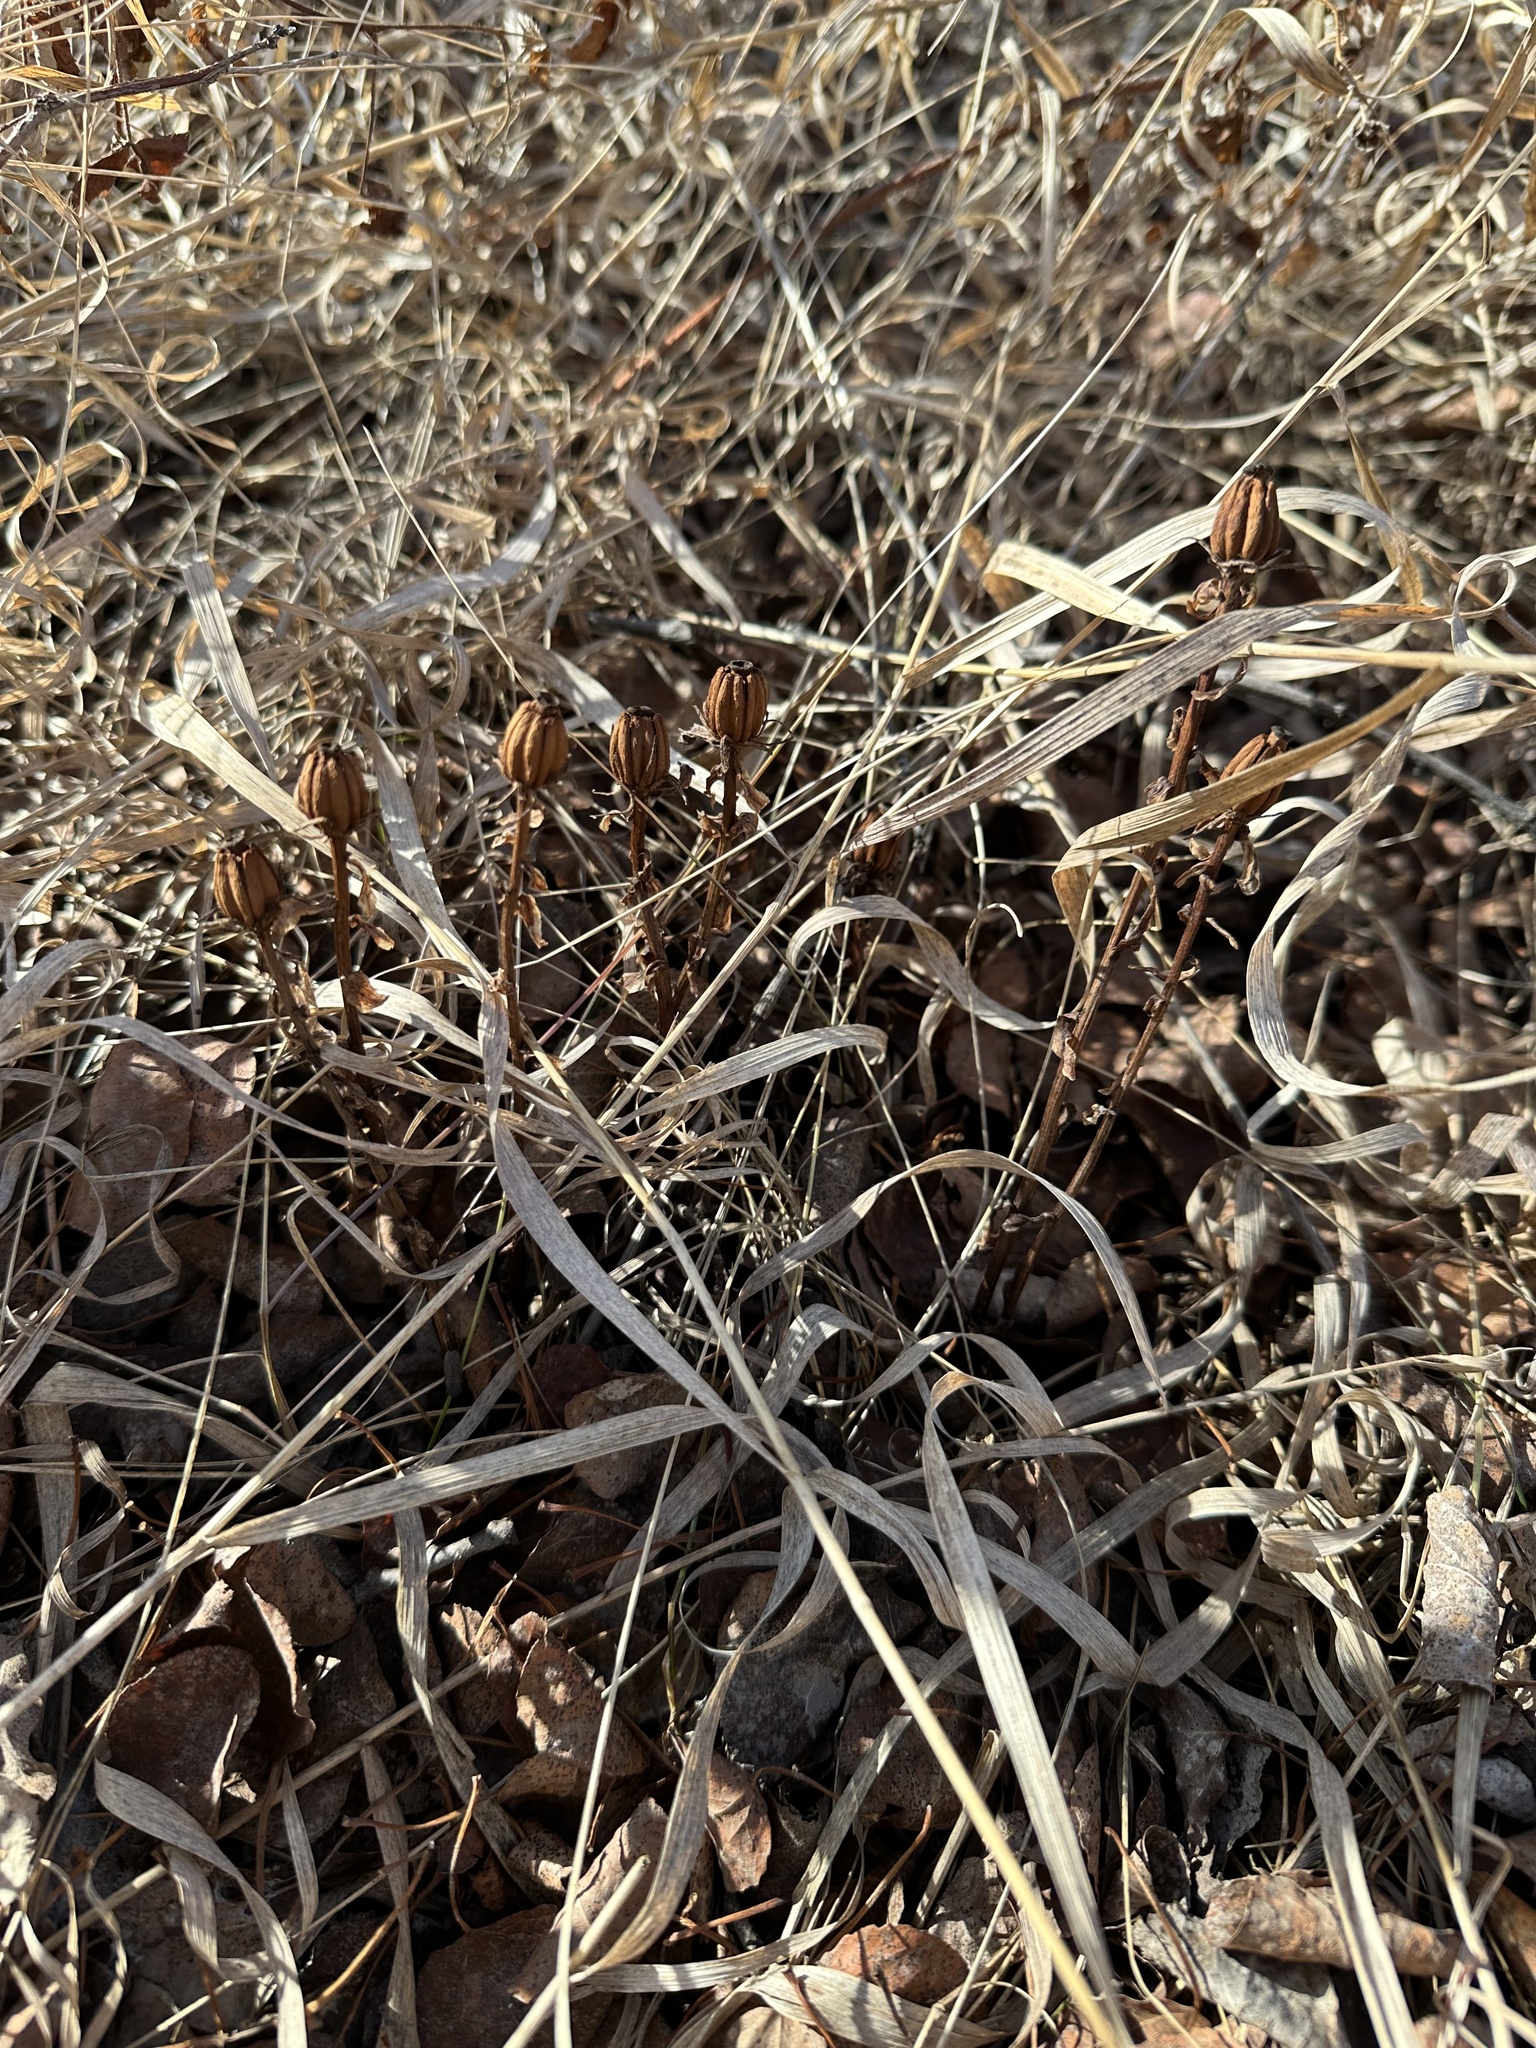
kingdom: Plantae
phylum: Tracheophyta
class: Magnoliopsida
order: Ericales
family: Ericaceae
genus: Monotropa
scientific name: Monotropa uniflora
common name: Convulsion root
